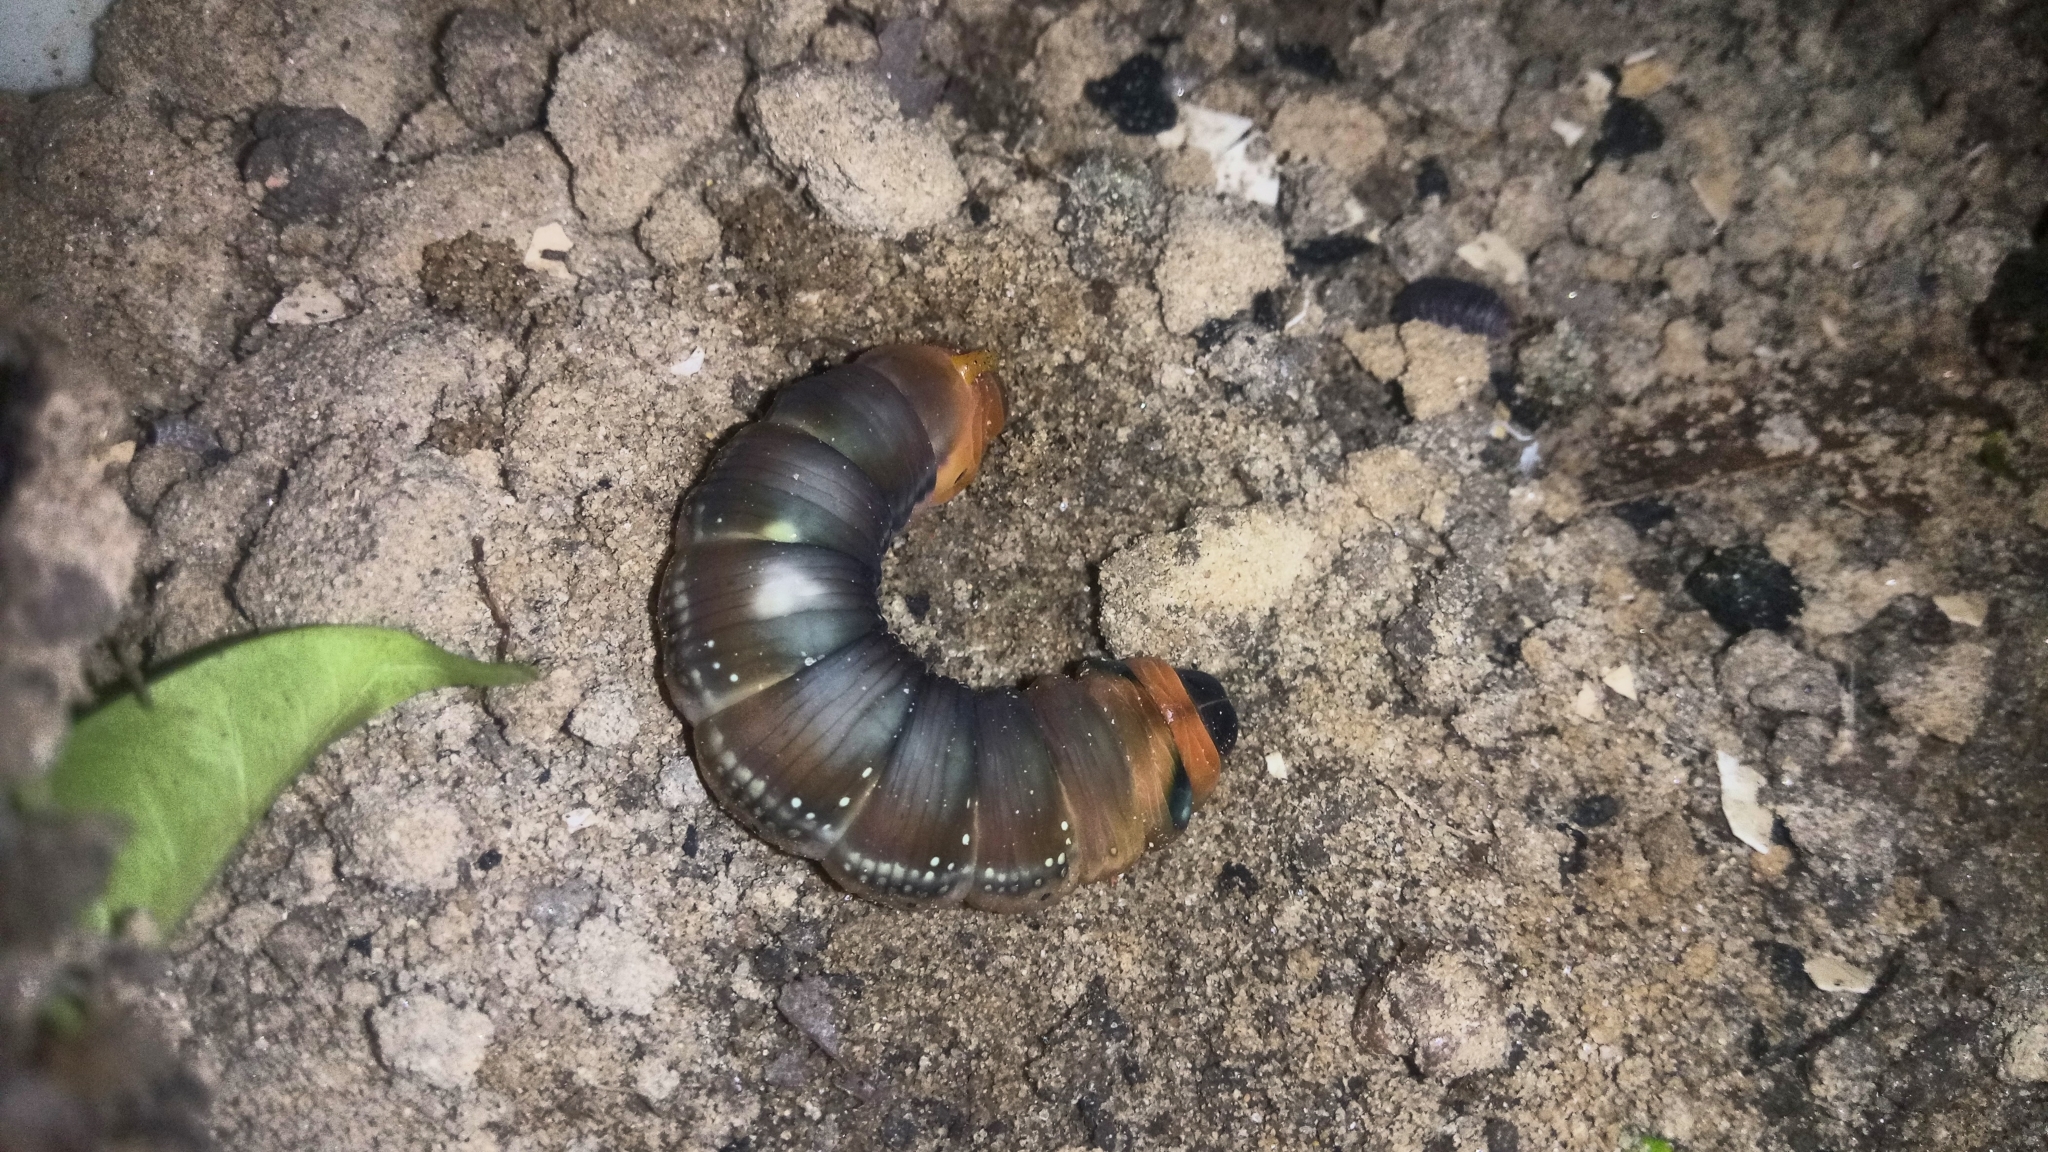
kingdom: Animalia
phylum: Arthropoda
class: Insecta
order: Lepidoptera
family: Sphingidae
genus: Daphnis
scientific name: Daphnis nerii
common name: Oleander hawk-moth
